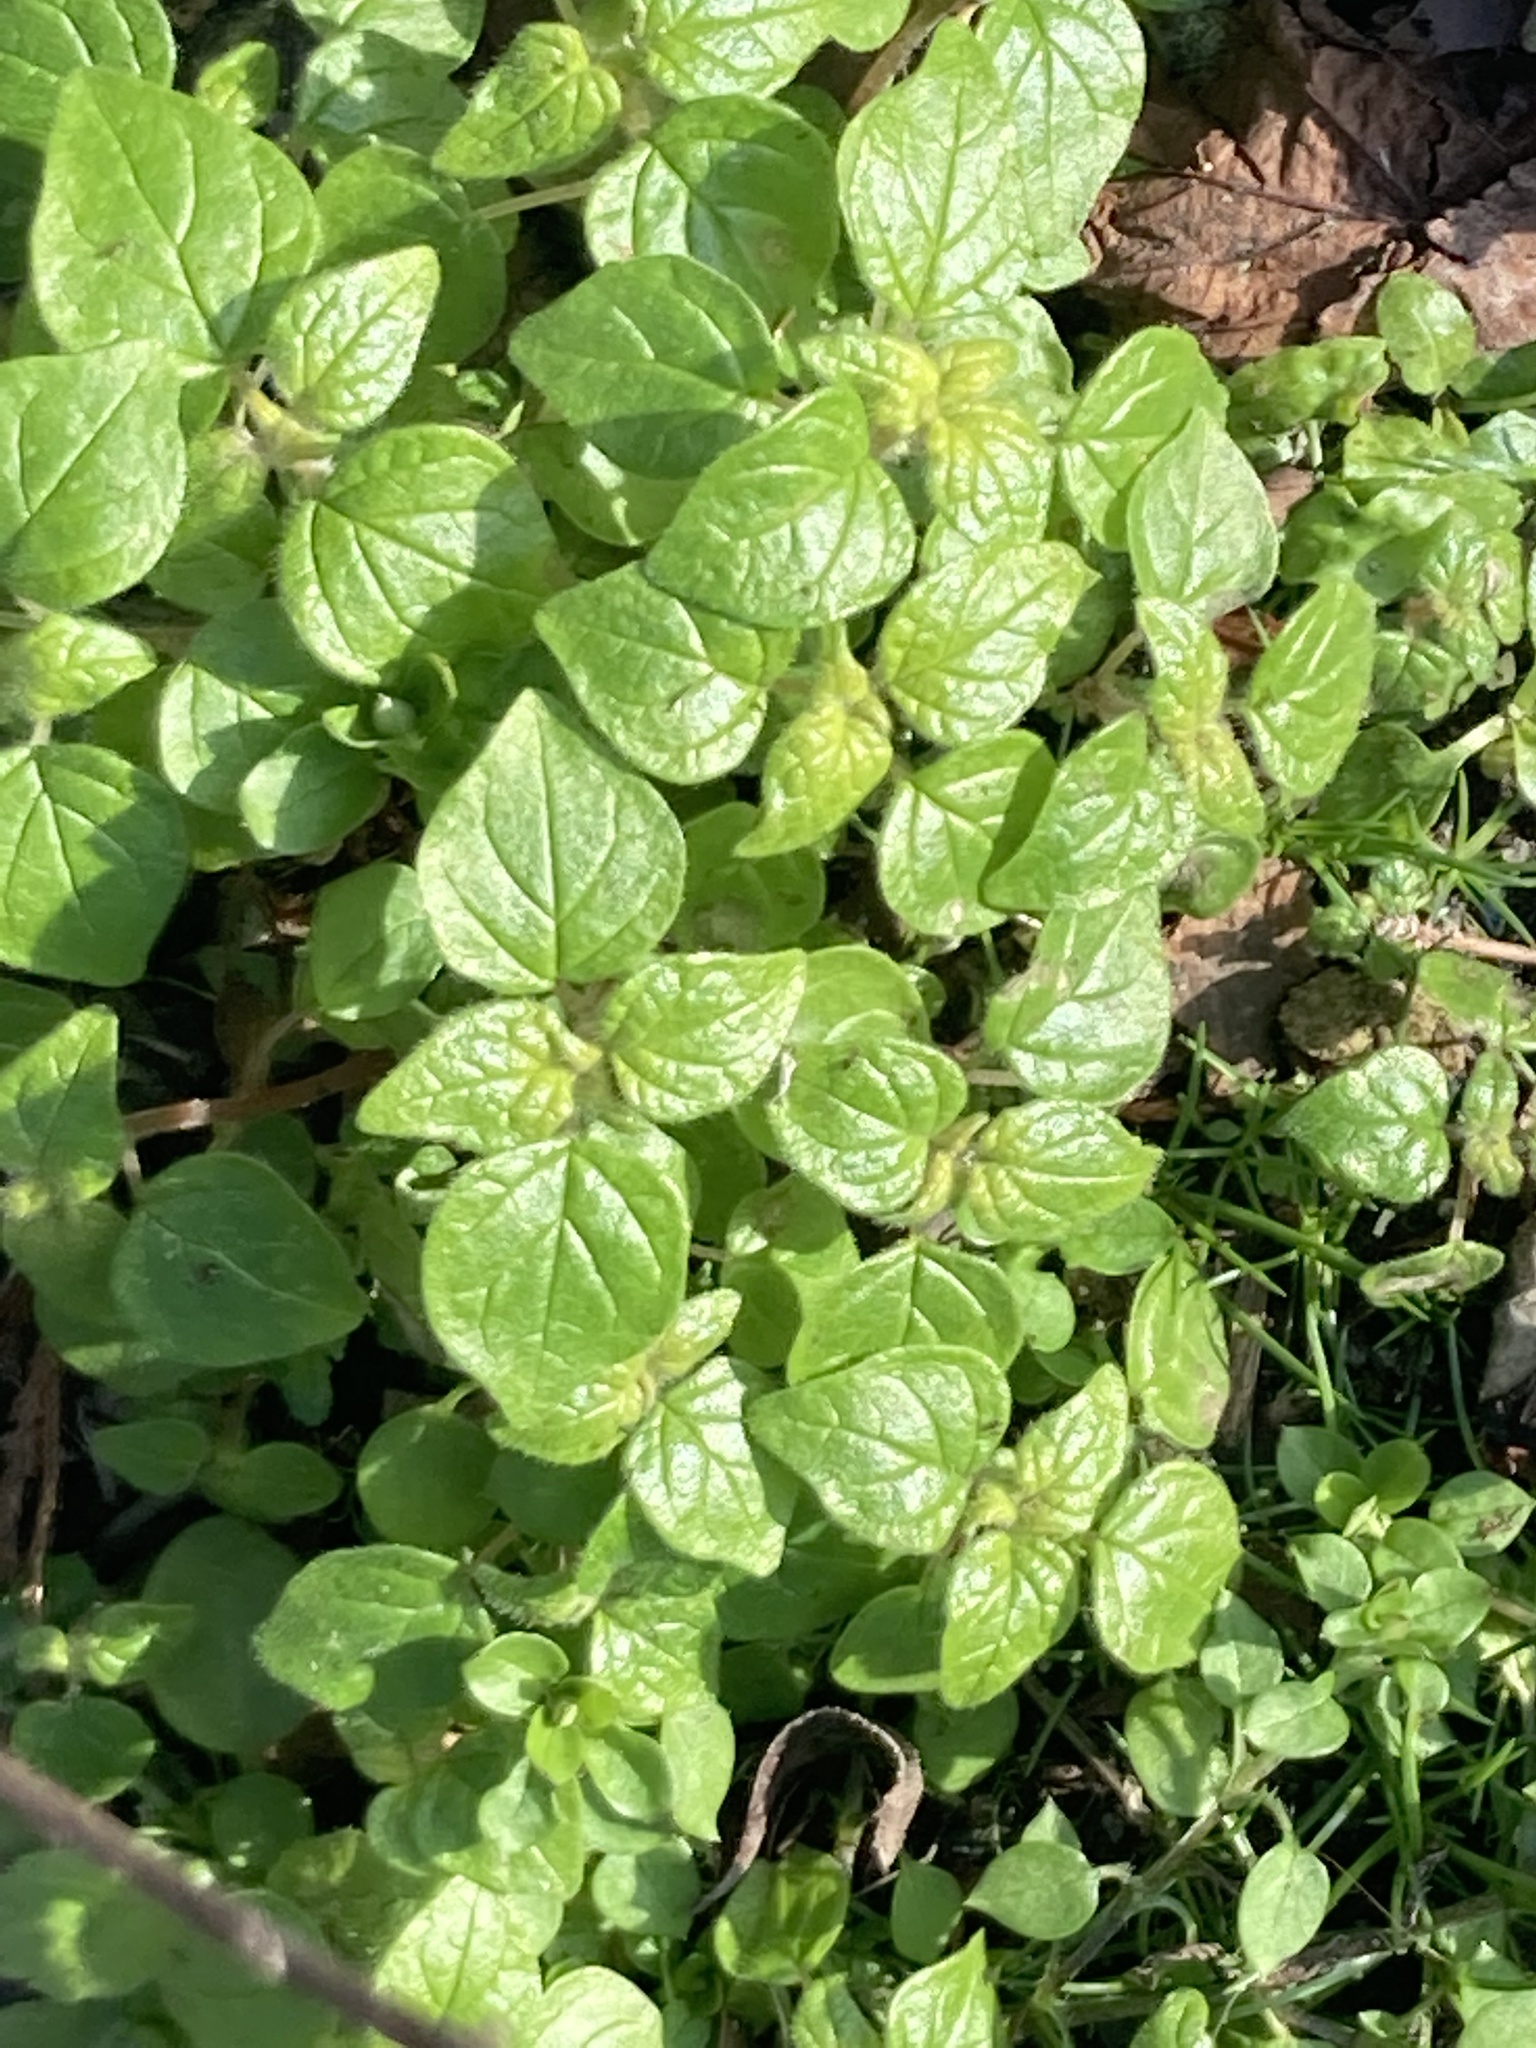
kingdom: Plantae
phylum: Tracheophyta
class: Magnoliopsida
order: Rosales
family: Urticaceae
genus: Parietaria
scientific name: Parietaria judaica
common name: Pellitory-of-the-wall
